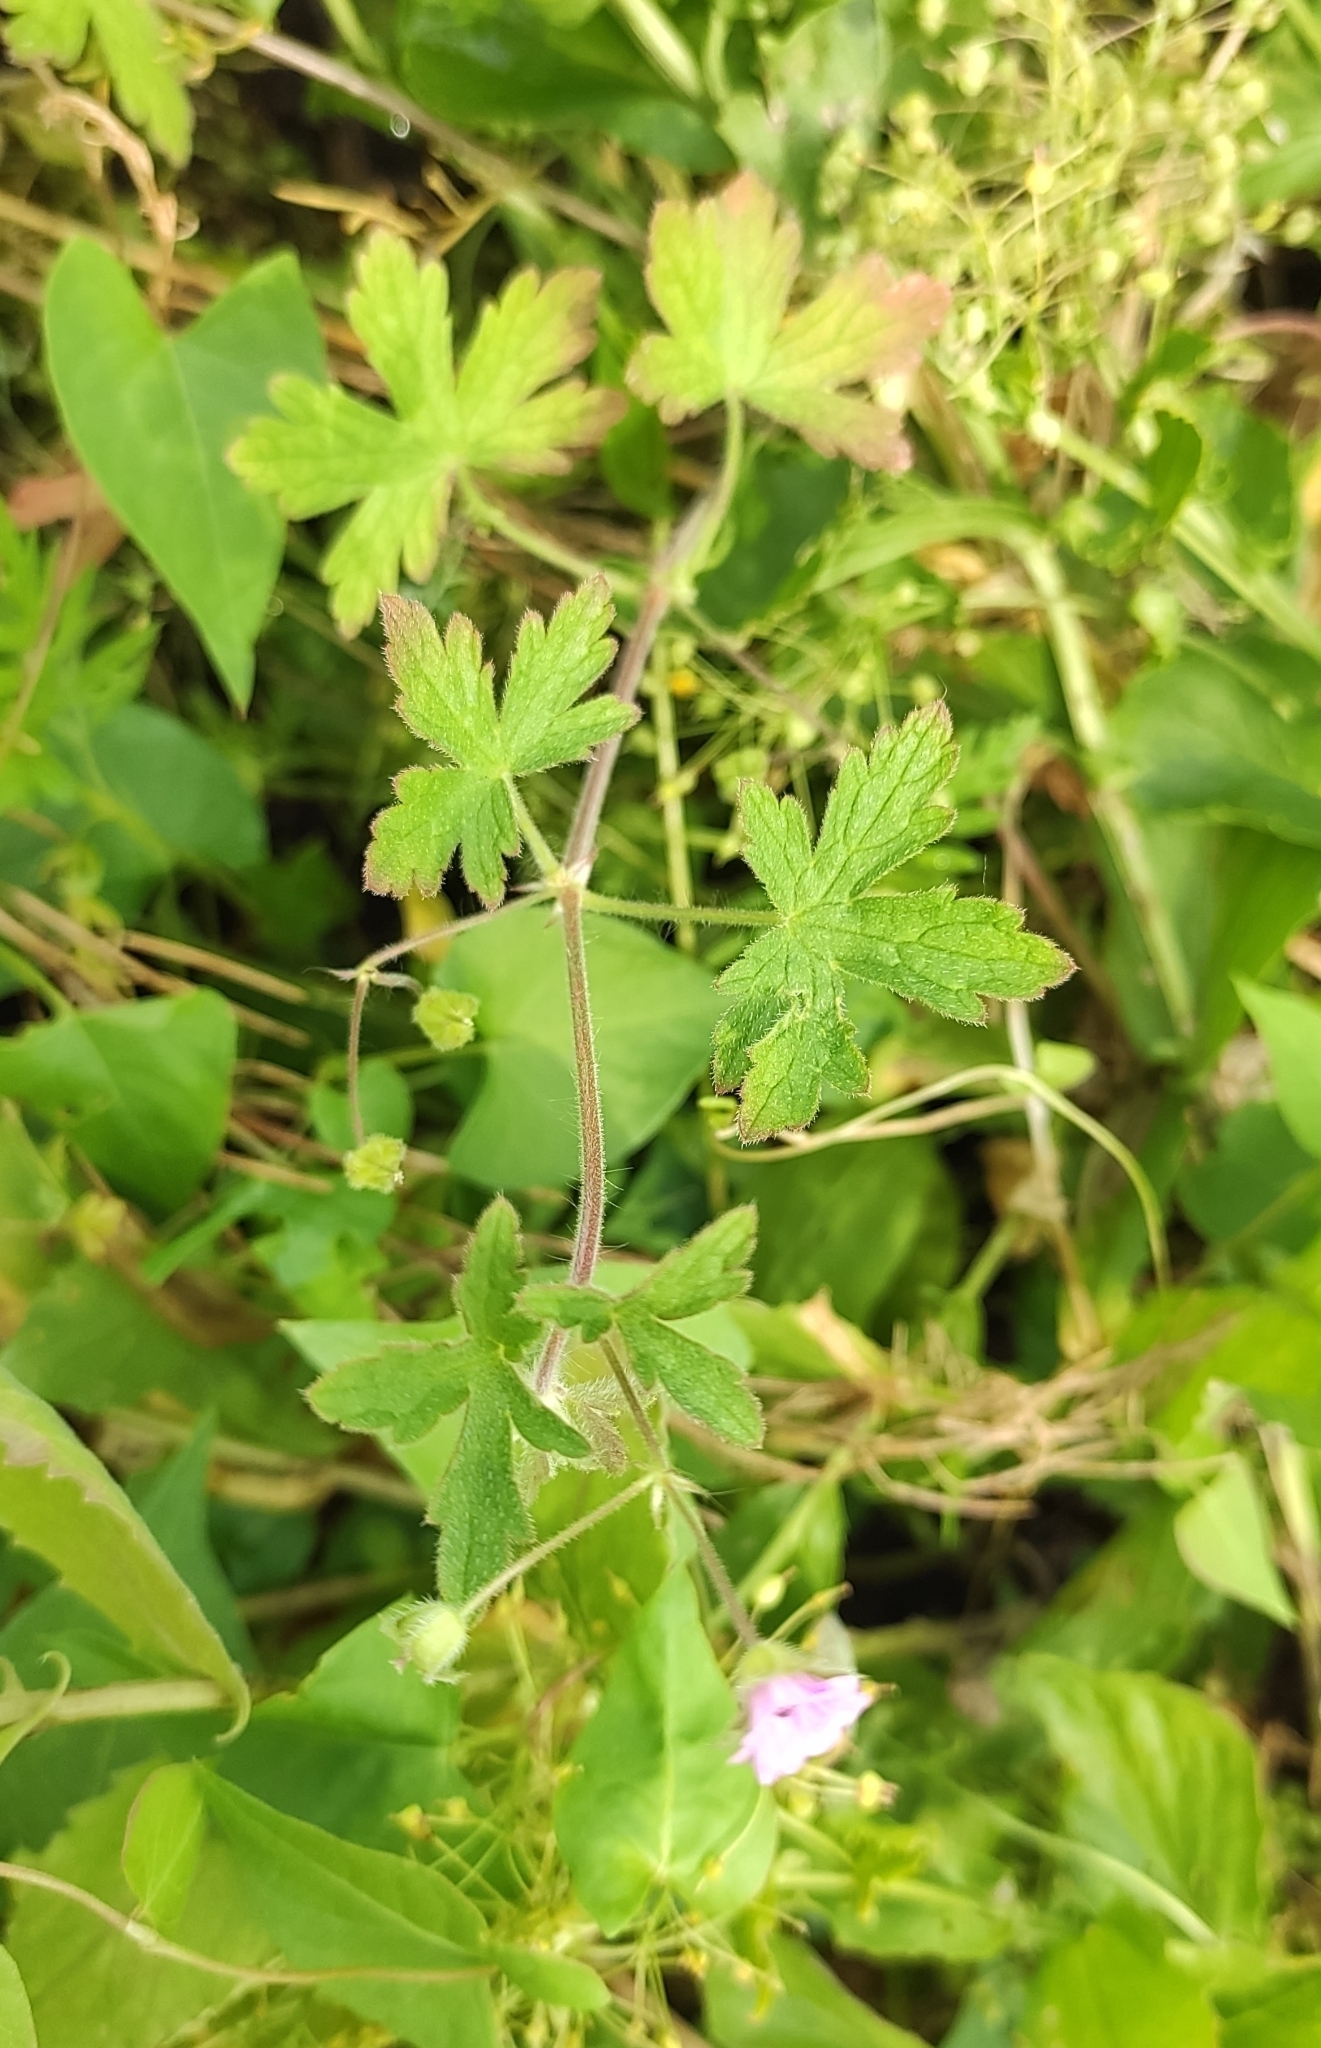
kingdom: Plantae
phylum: Tracheophyta
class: Magnoliopsida
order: Geraniales
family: Geraniaceae
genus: Geranium
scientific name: Geranium divaricatum
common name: Spreading crane's-bill
